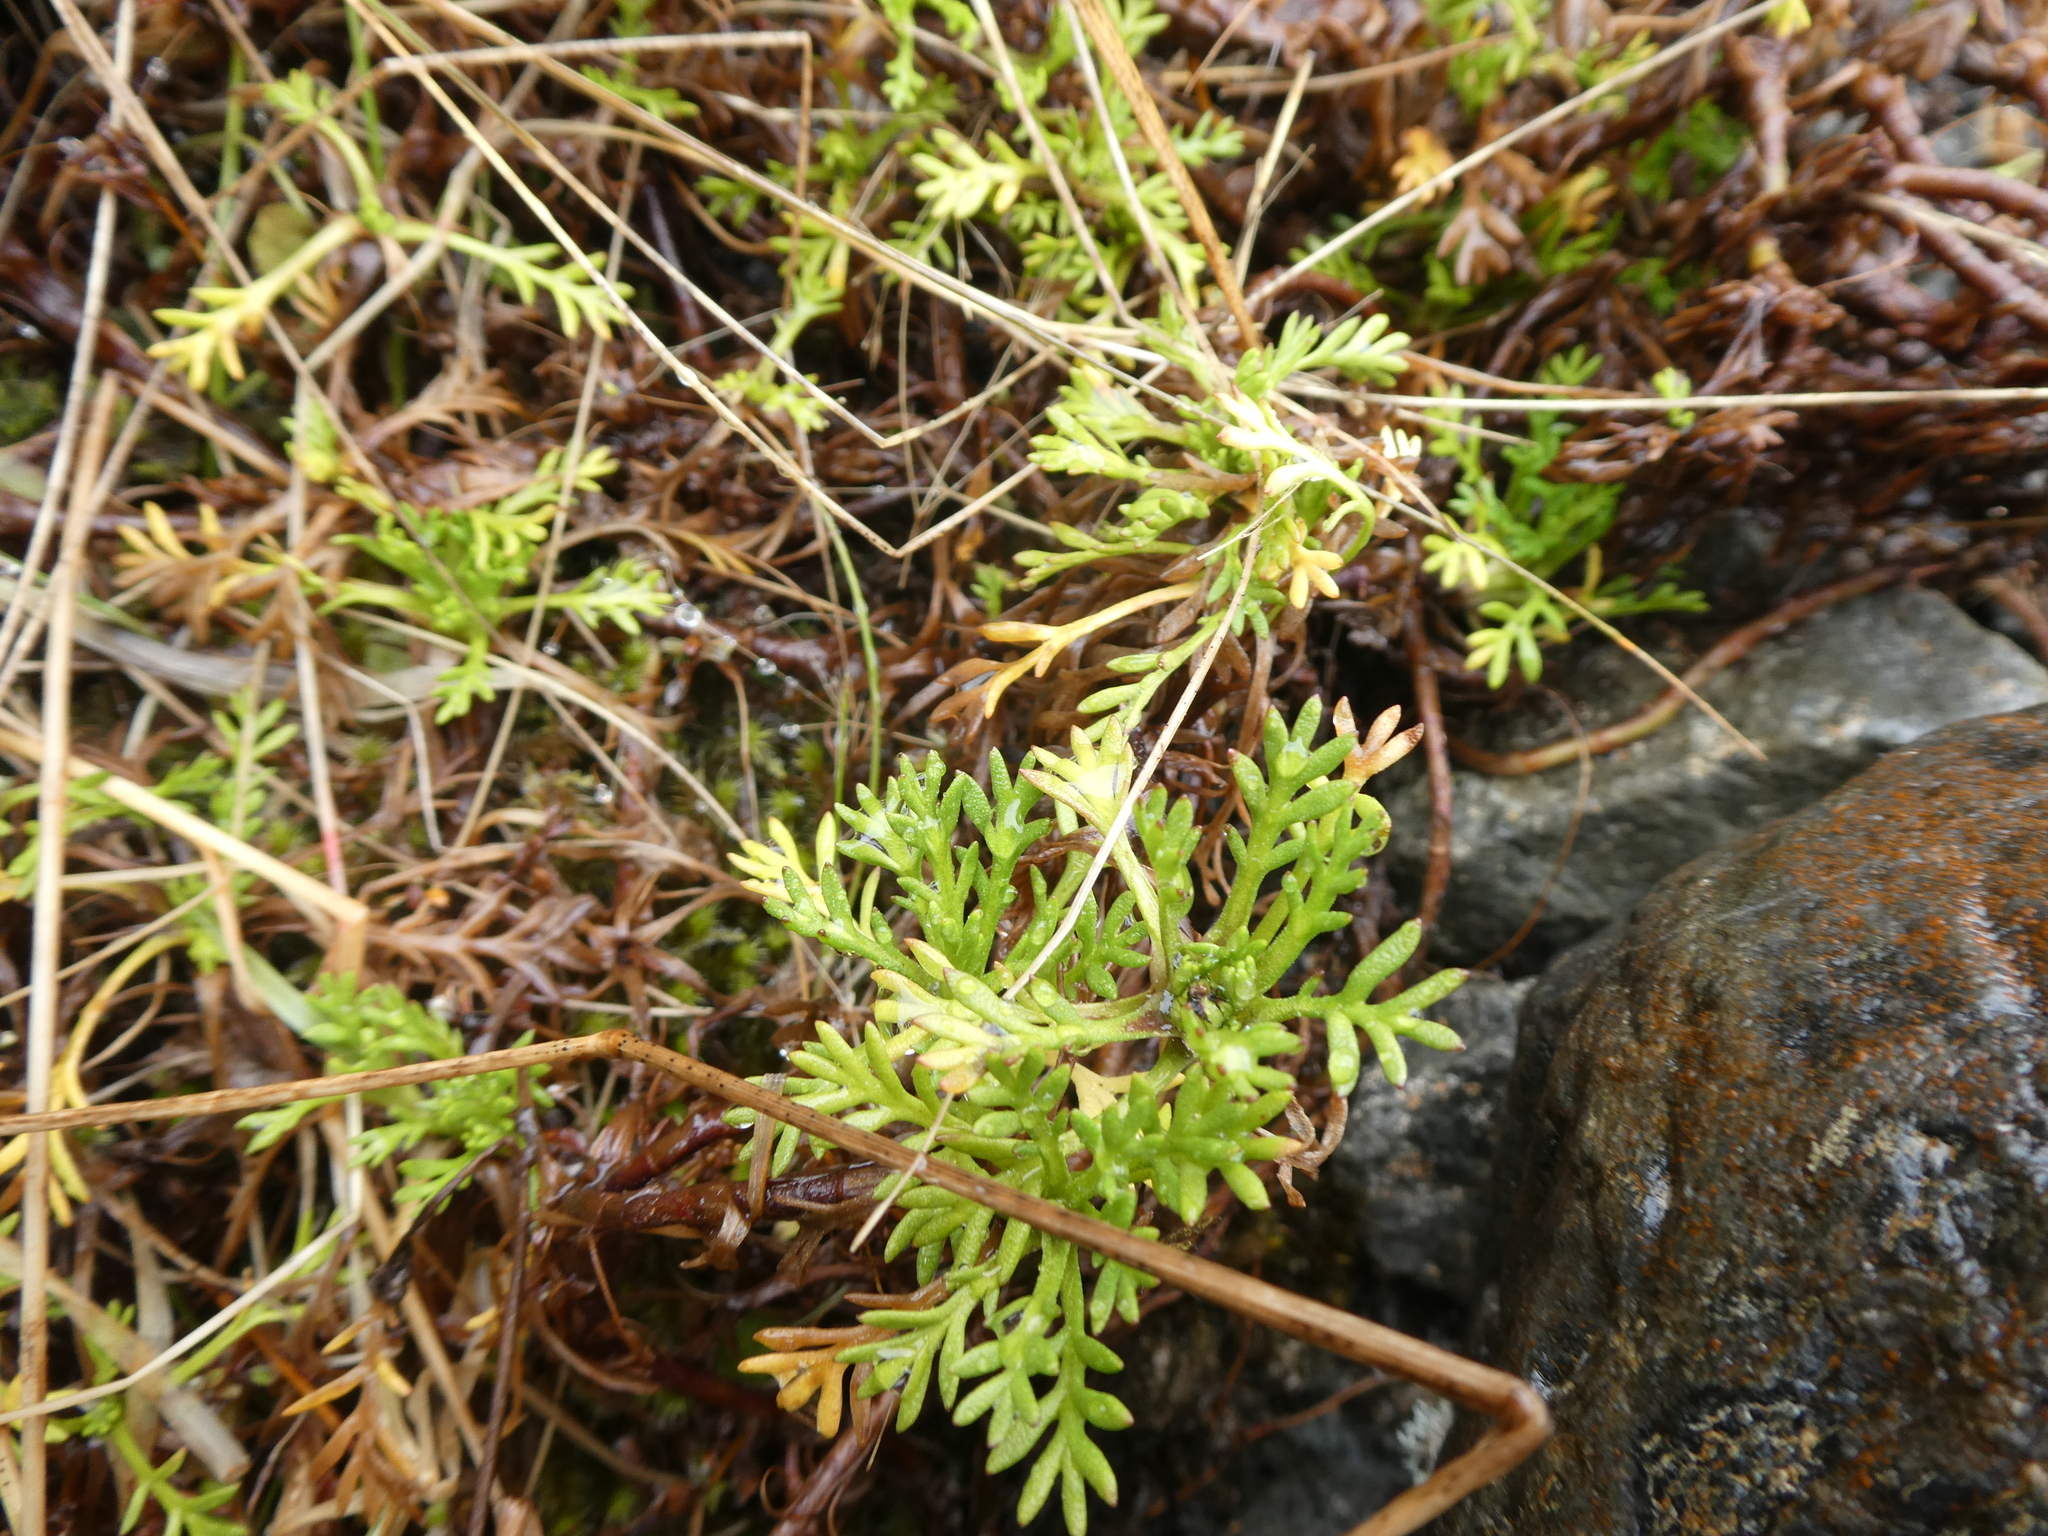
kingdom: Plantae
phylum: Tracheophyta
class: Magnoliopsida
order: Asterales
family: Asteraceae
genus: Leptinella
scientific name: Leptinella pyrethrifolia
